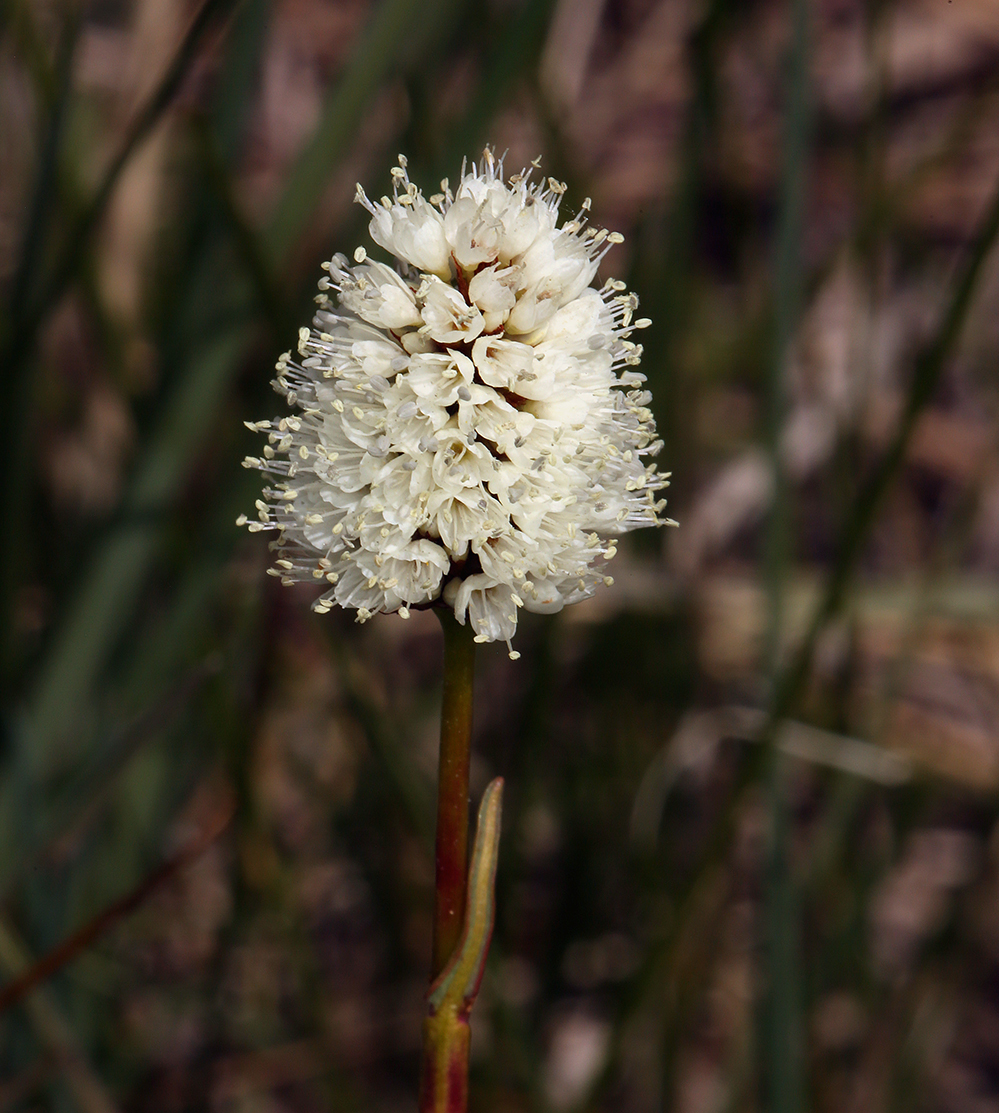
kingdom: Plantae
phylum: Tracheophyta
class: Magnoliopsida
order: Caryophyllales
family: Polygonaceae
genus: Bistorta
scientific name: Bistorta bistortoides
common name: American bistort
